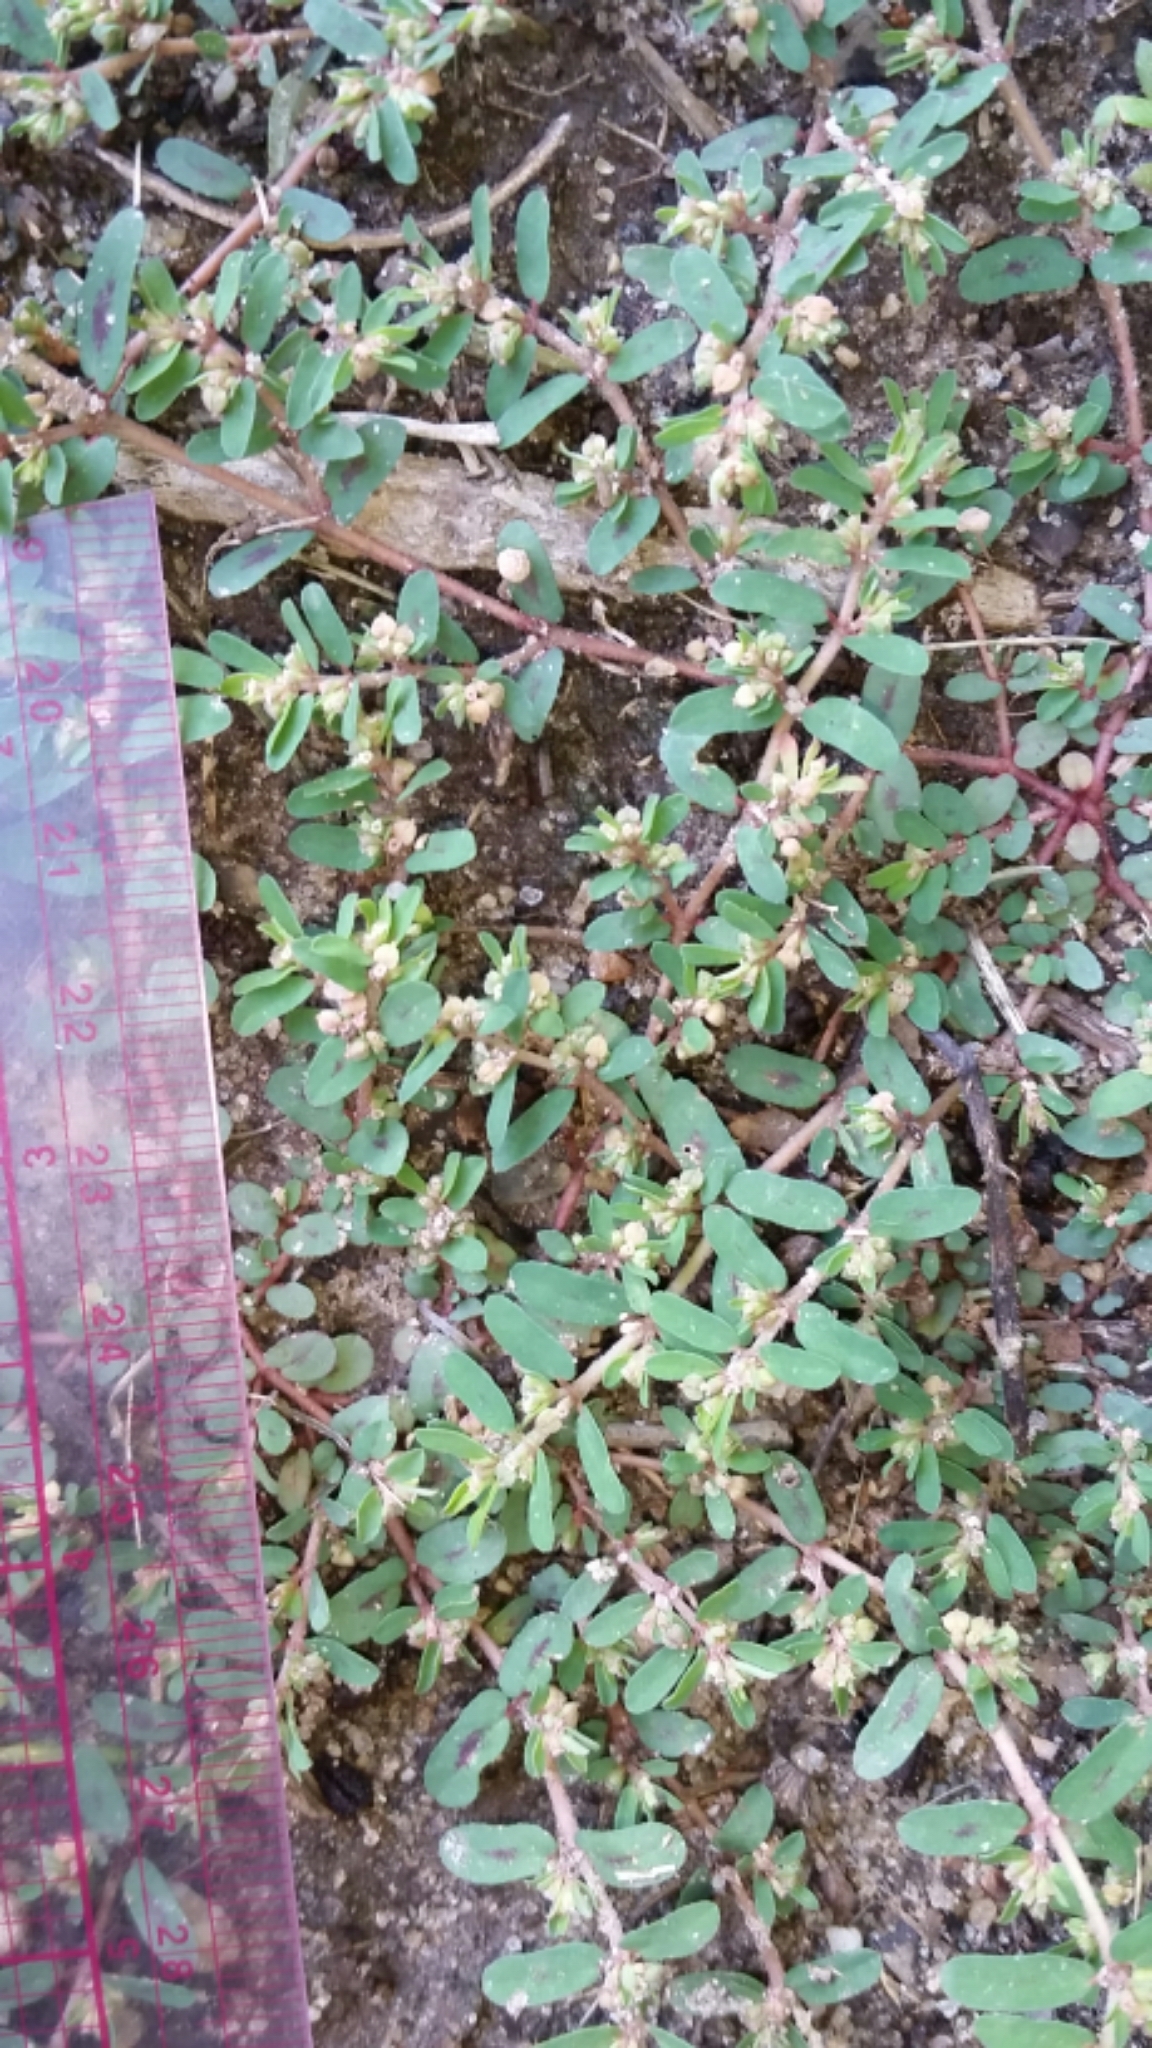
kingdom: Plantae
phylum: Tracheophyta
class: Magnoliopsida
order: Malpighiales
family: Euphorbiaceae
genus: Euphorbia
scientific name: Euphorbia maculata
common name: Spotted spurge
